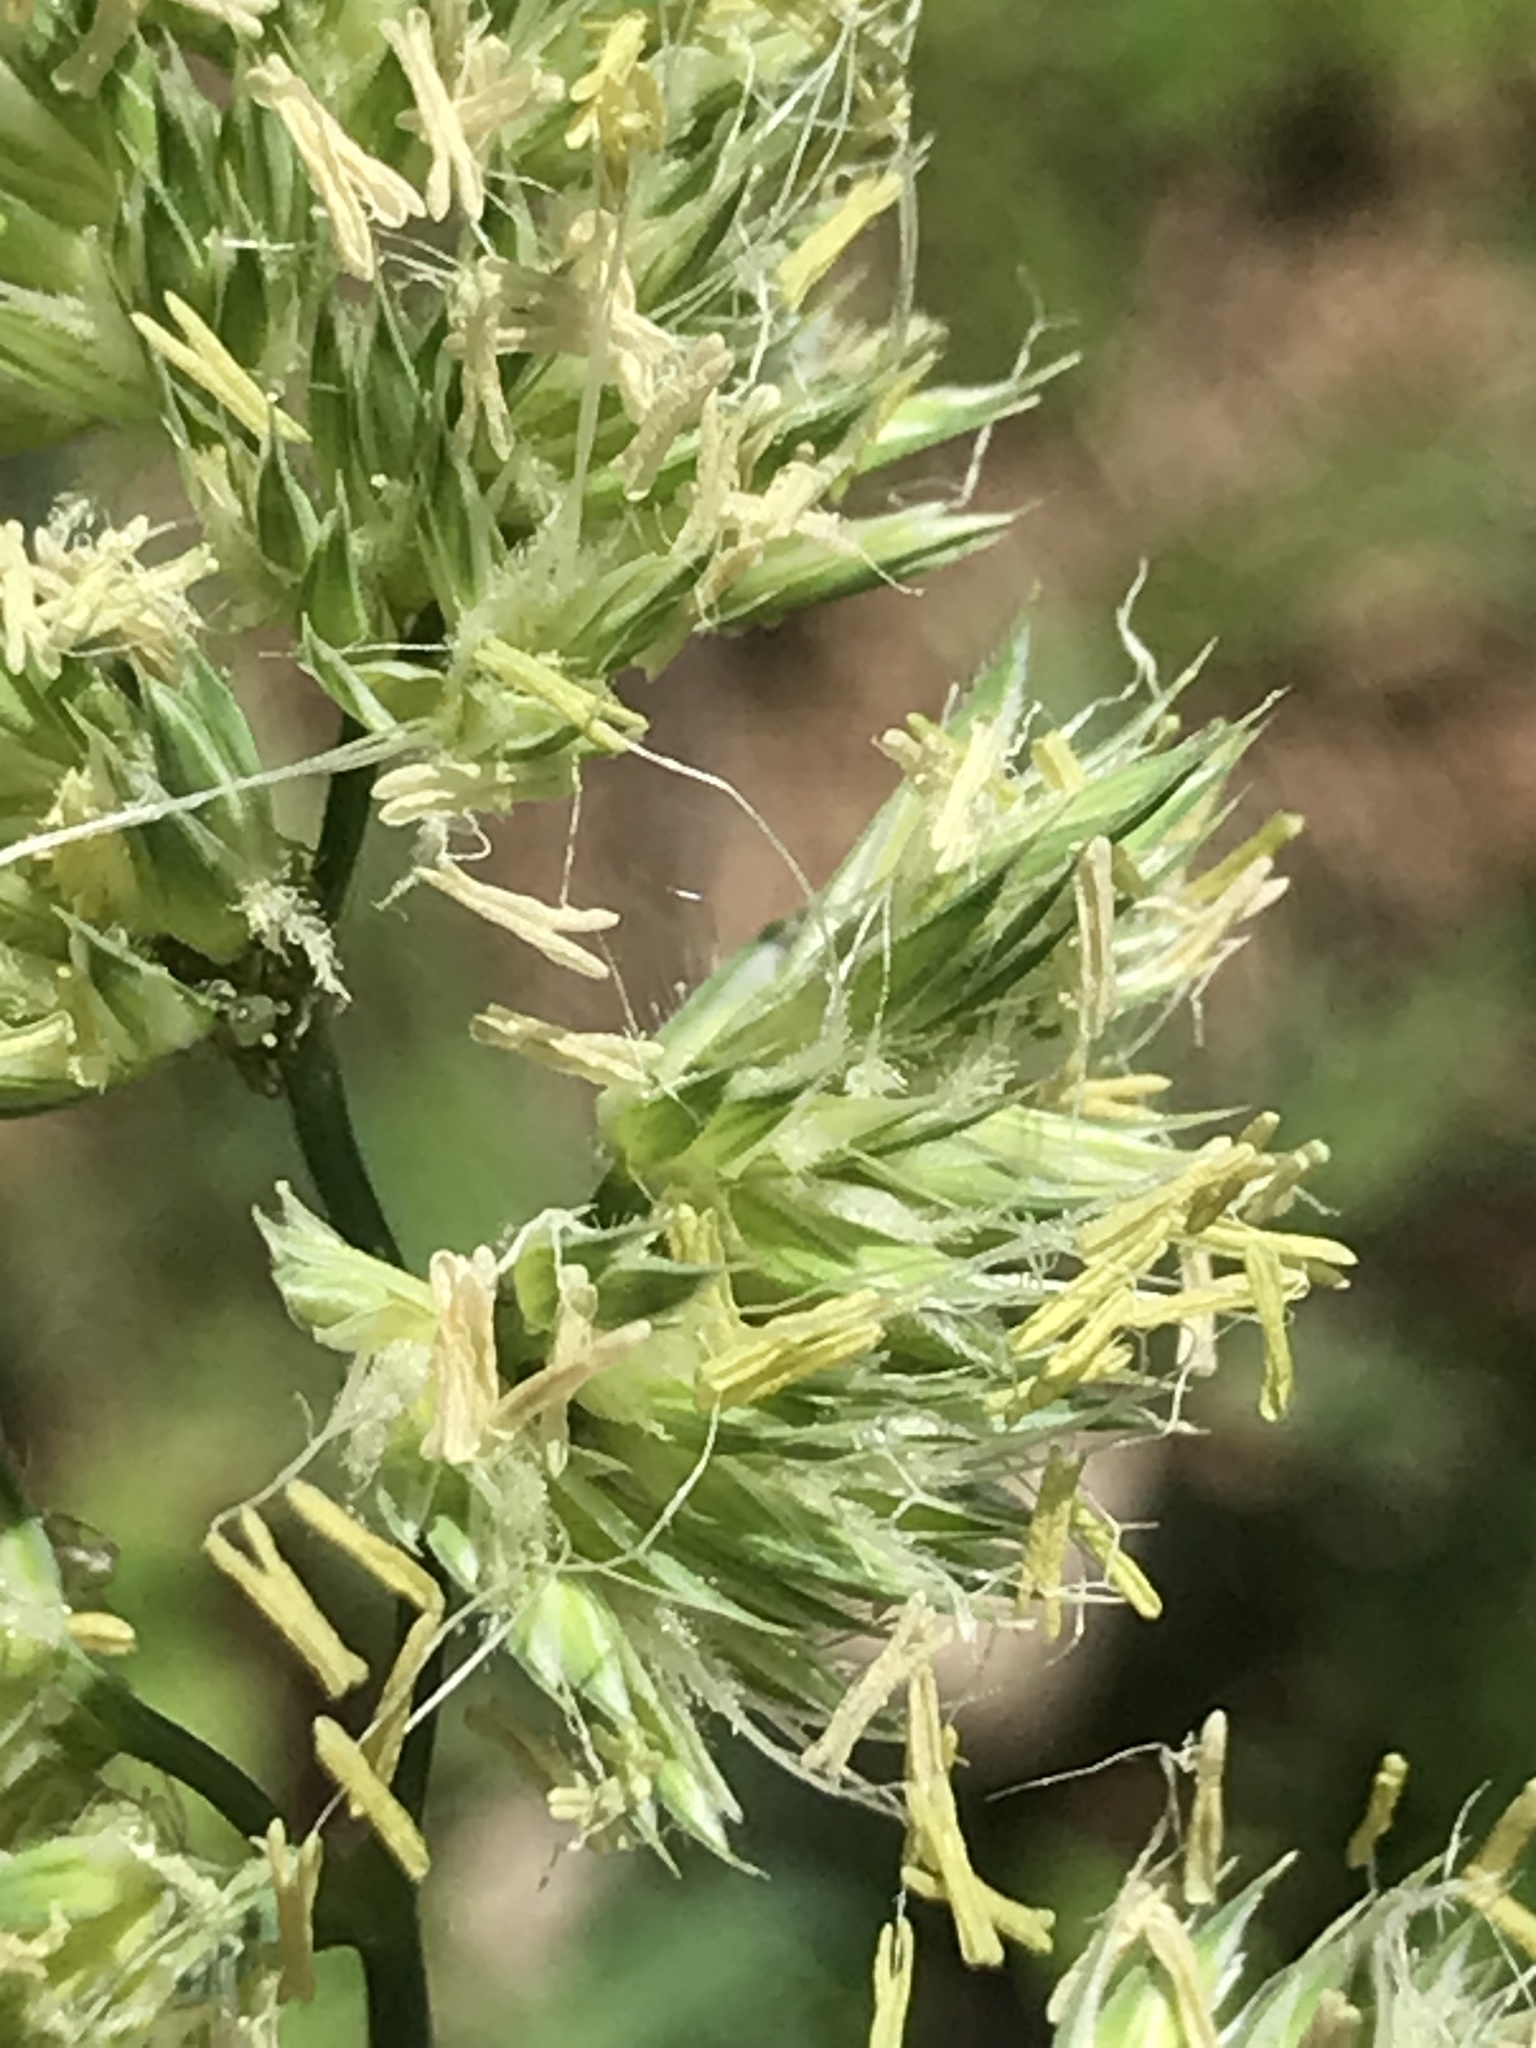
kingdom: Plantae
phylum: Tracheophyta
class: Liliopsida
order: Poales
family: Poaceae
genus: Dactylis
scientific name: Dactylis glomerata
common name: Orchardgrass
